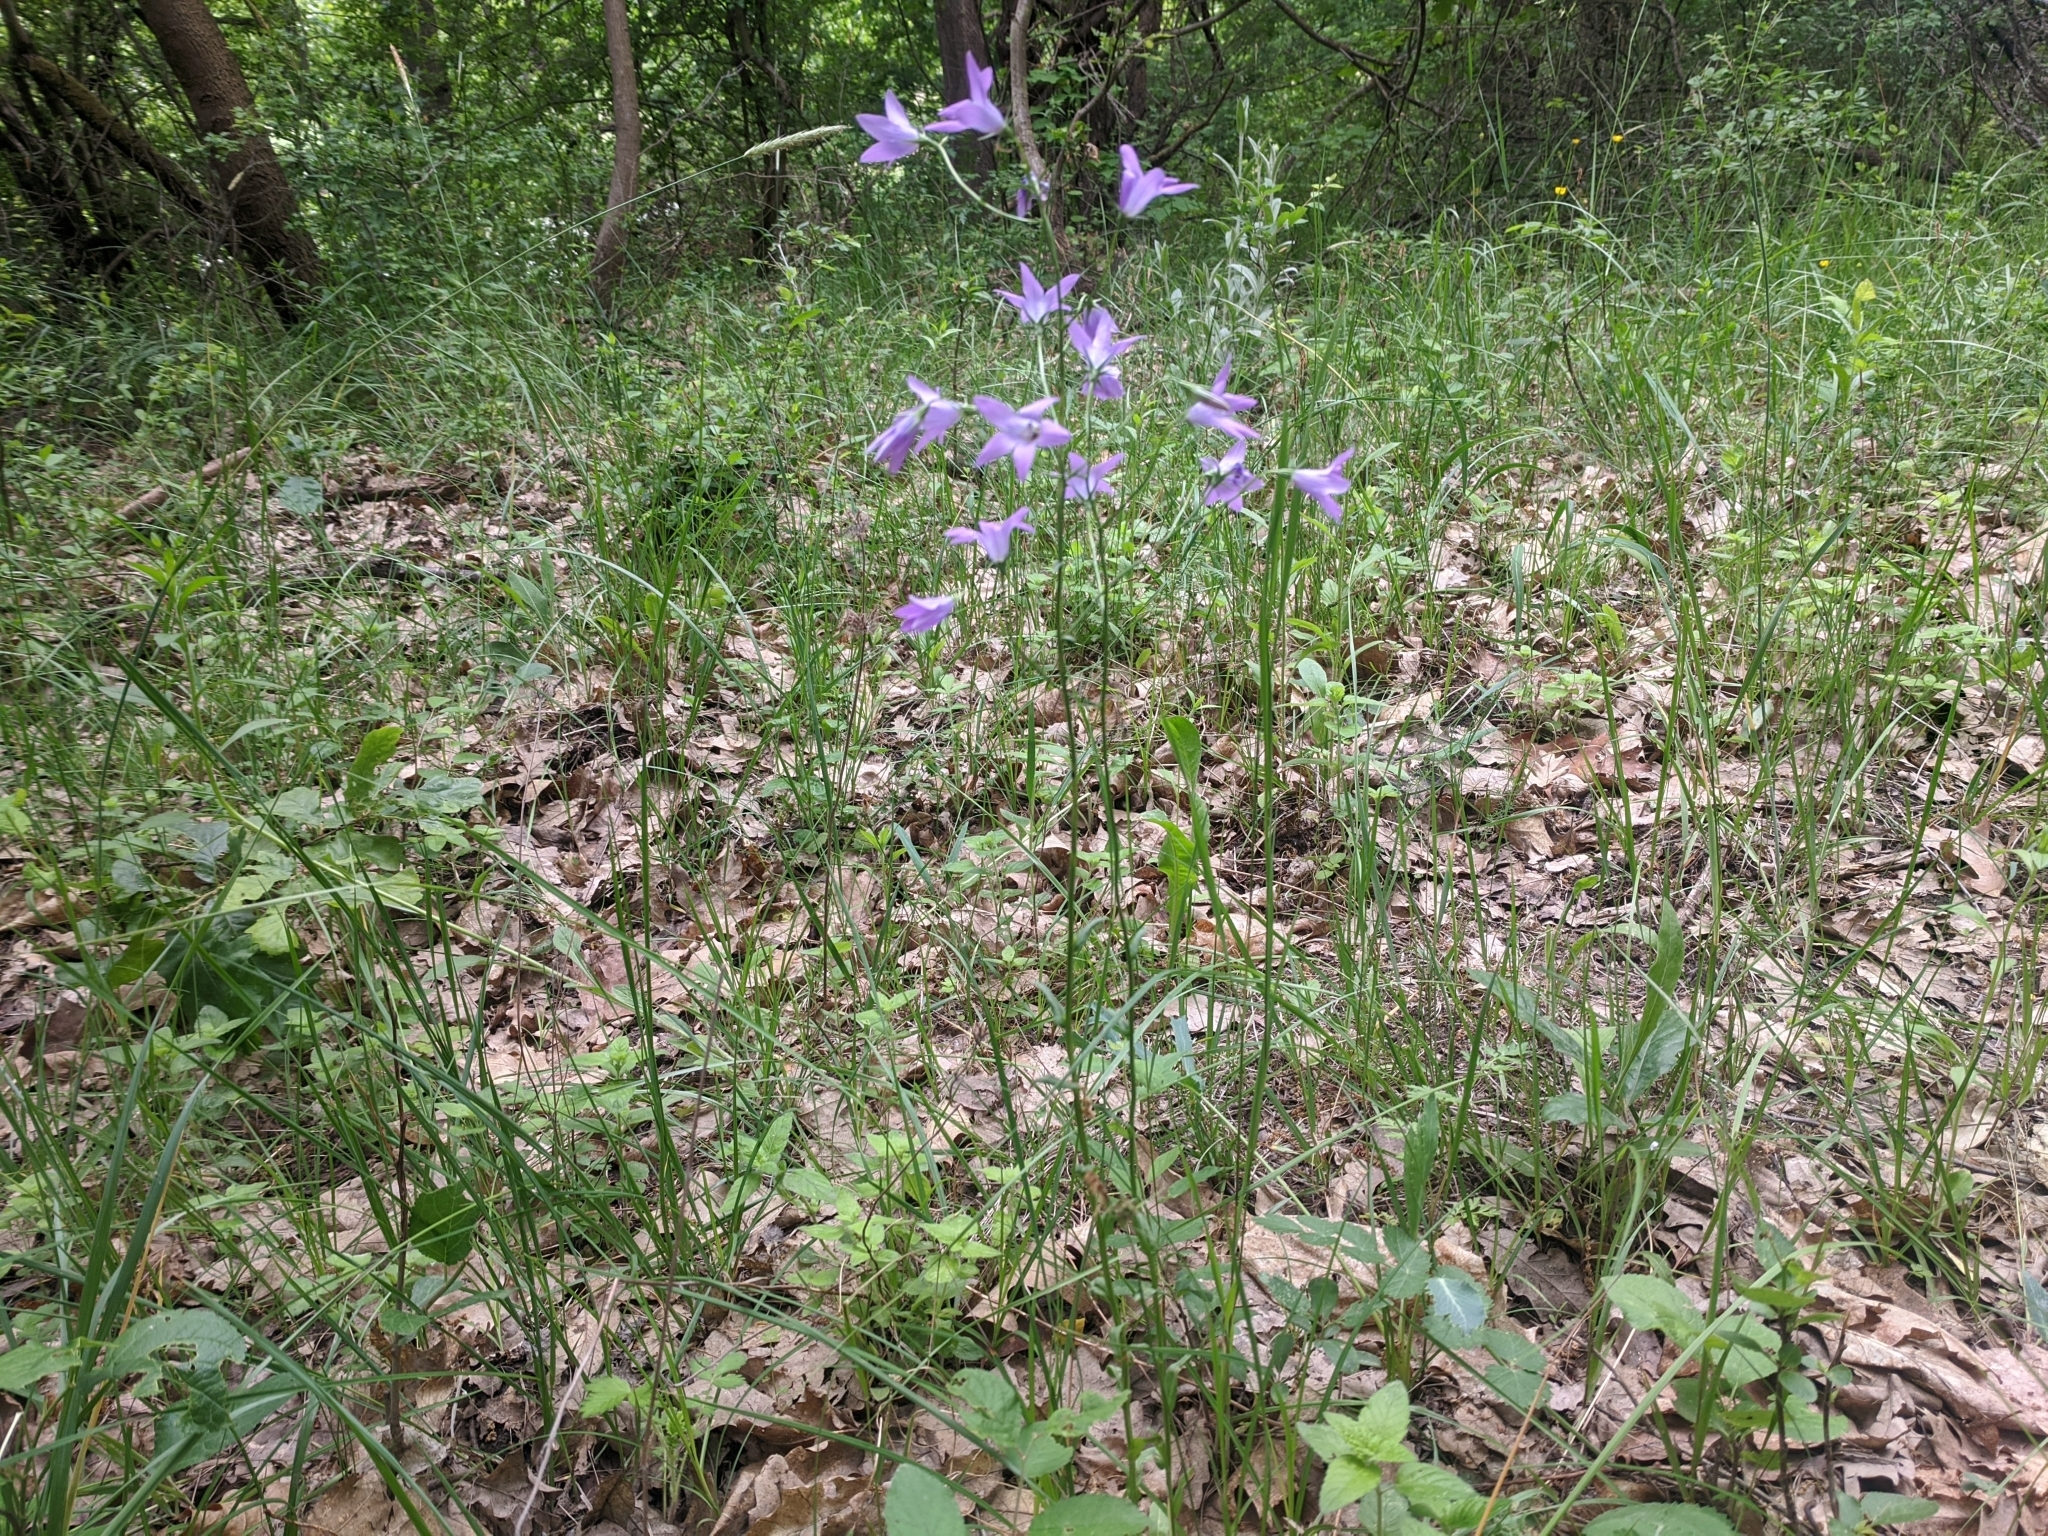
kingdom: Plantae
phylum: Tracheophyta
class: Magnoliopsida
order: Asterales
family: Campanulaceae
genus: Campanula
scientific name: Campanula patula
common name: Spreading bellflower
